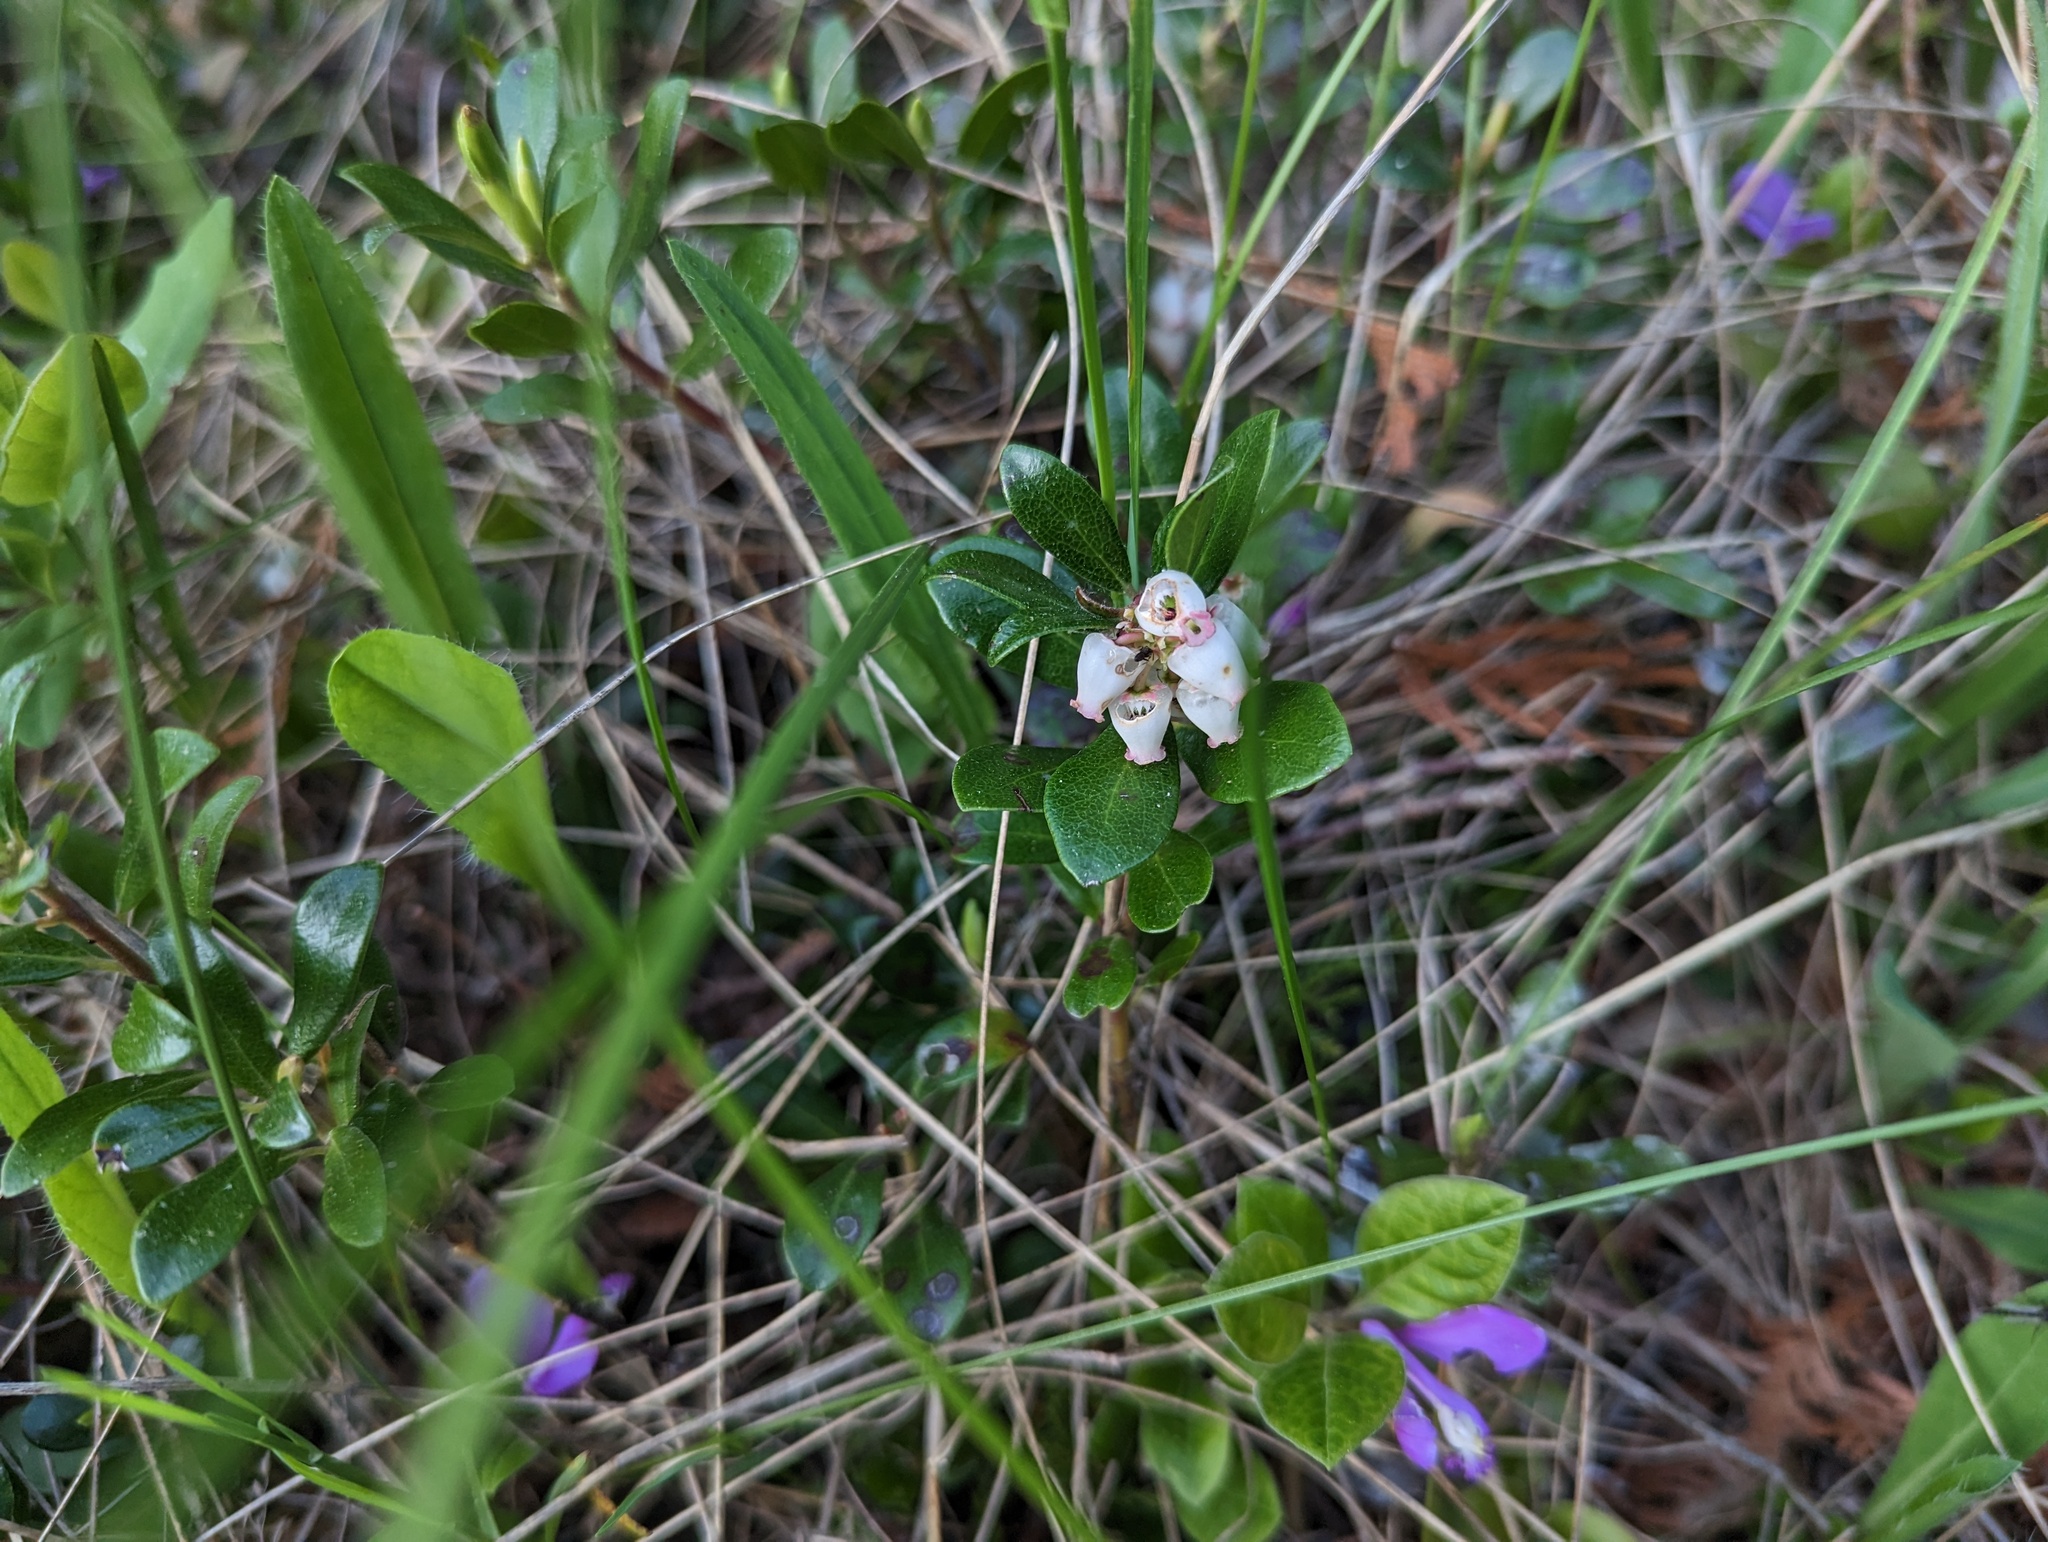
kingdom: Plantae
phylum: Tracheophyta
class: Magnoliopsida
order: Ericales
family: Ericaceae
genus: Arctostaphylos
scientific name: Arctostaphylos uva-ursi
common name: Bearberry
